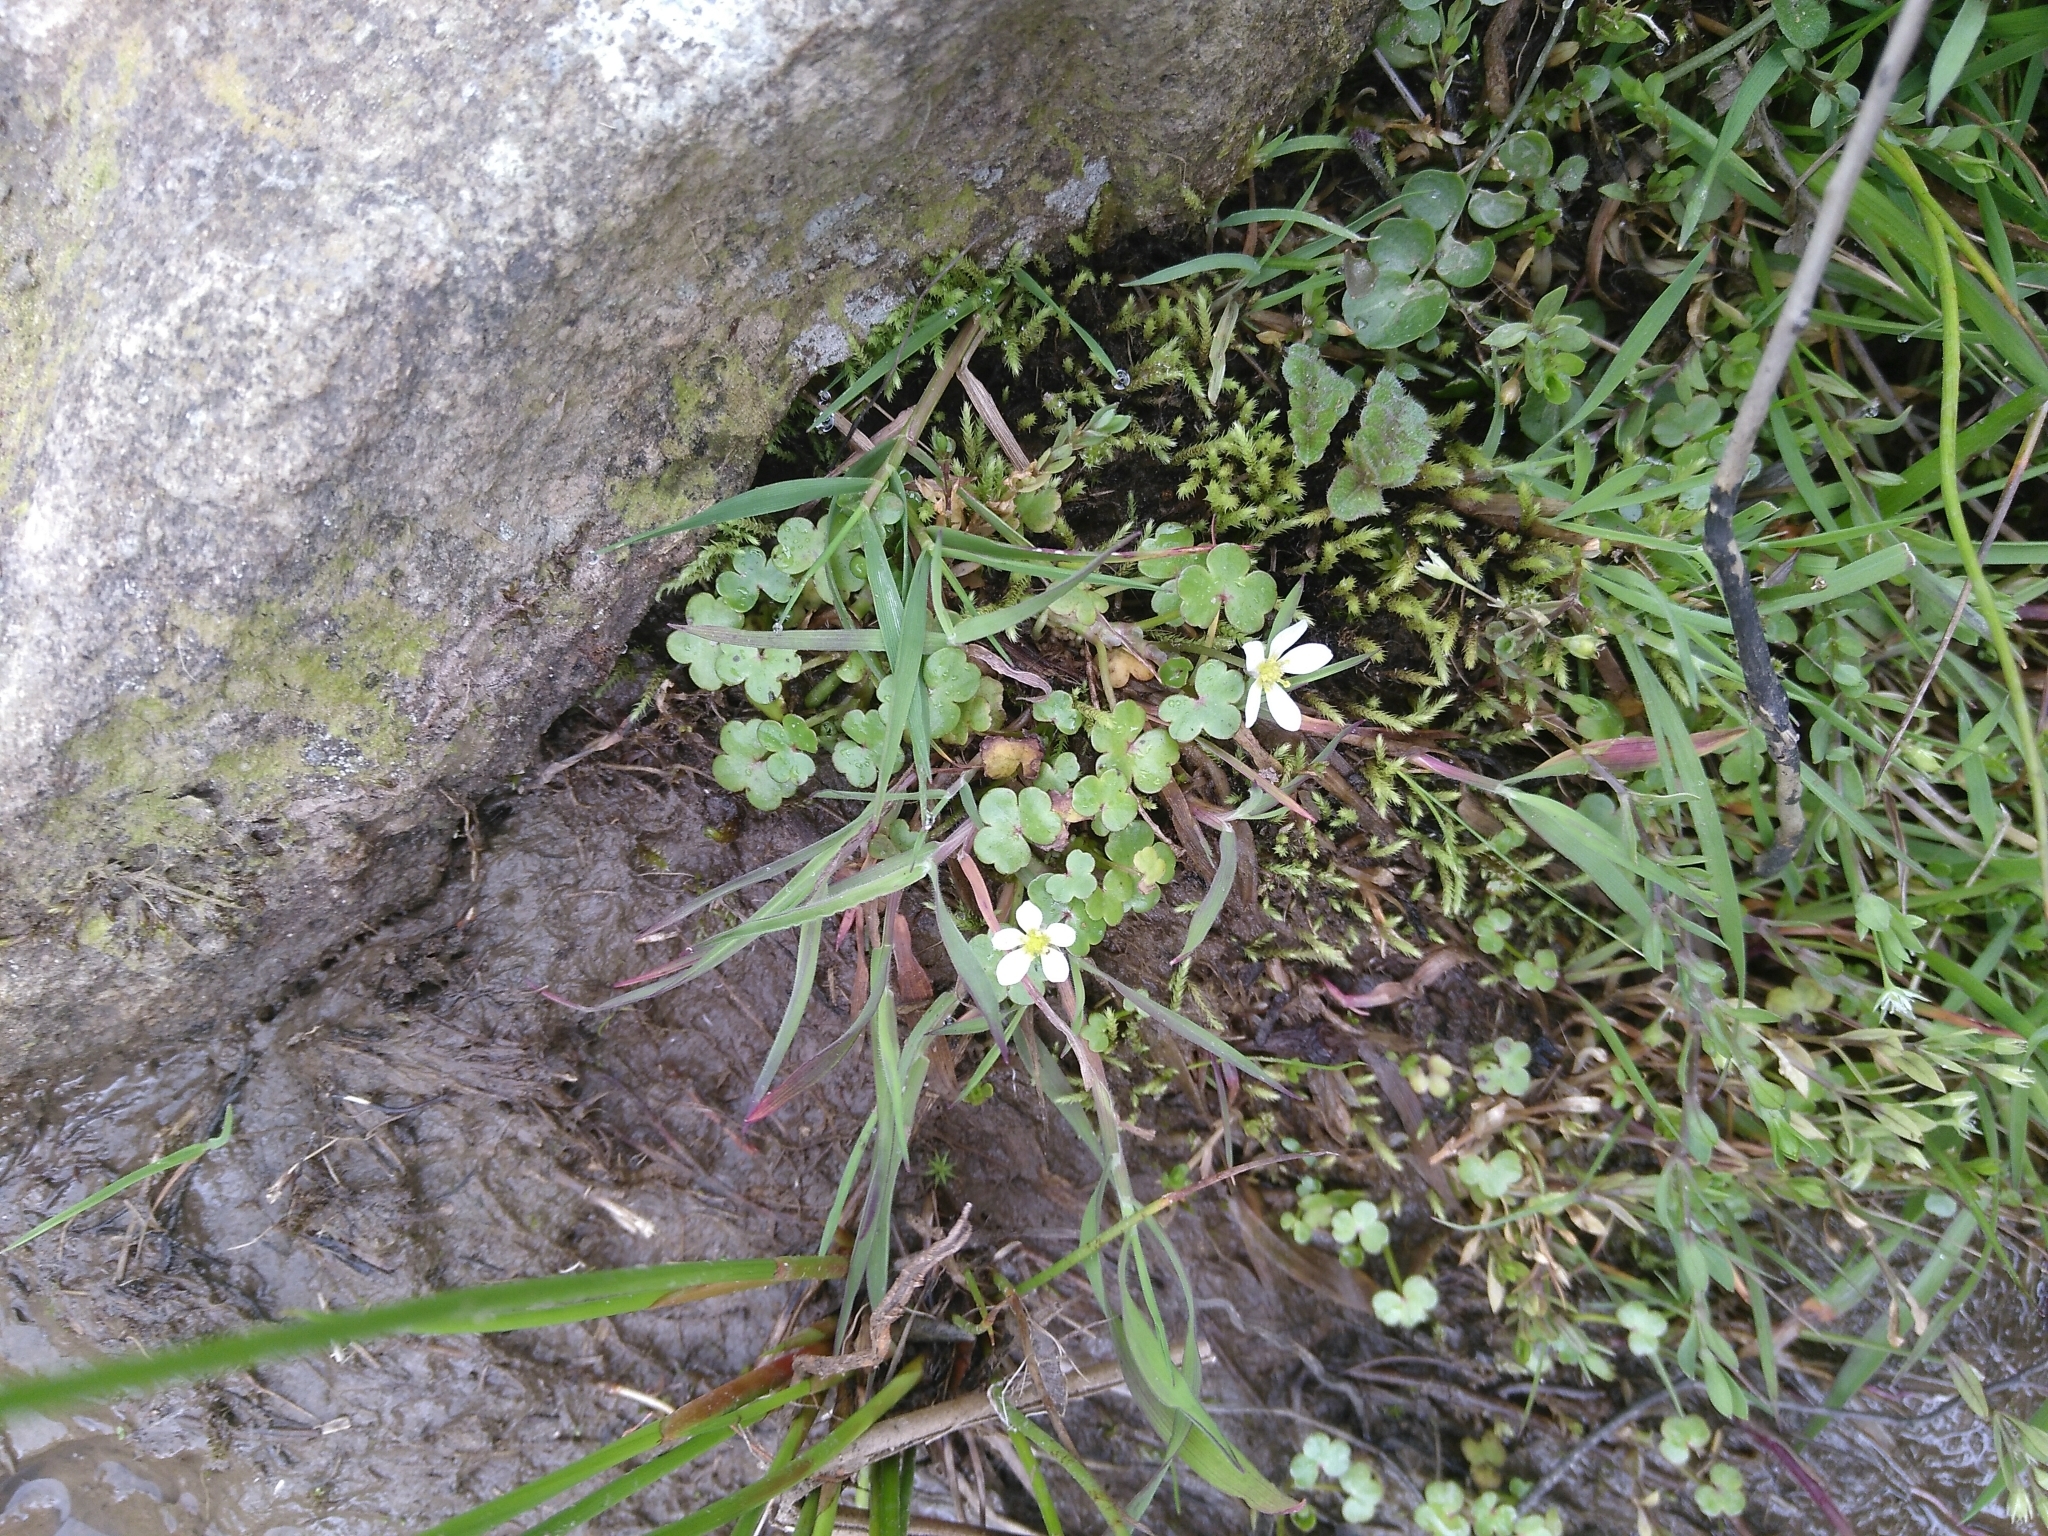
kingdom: Plantae
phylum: Tracheophyta
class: Magnoliopsida
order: Ranunculales
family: Ranunculaceae
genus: Ranunculus
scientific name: Ranunculus omiophyllus
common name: Round-leaved crowfoot
